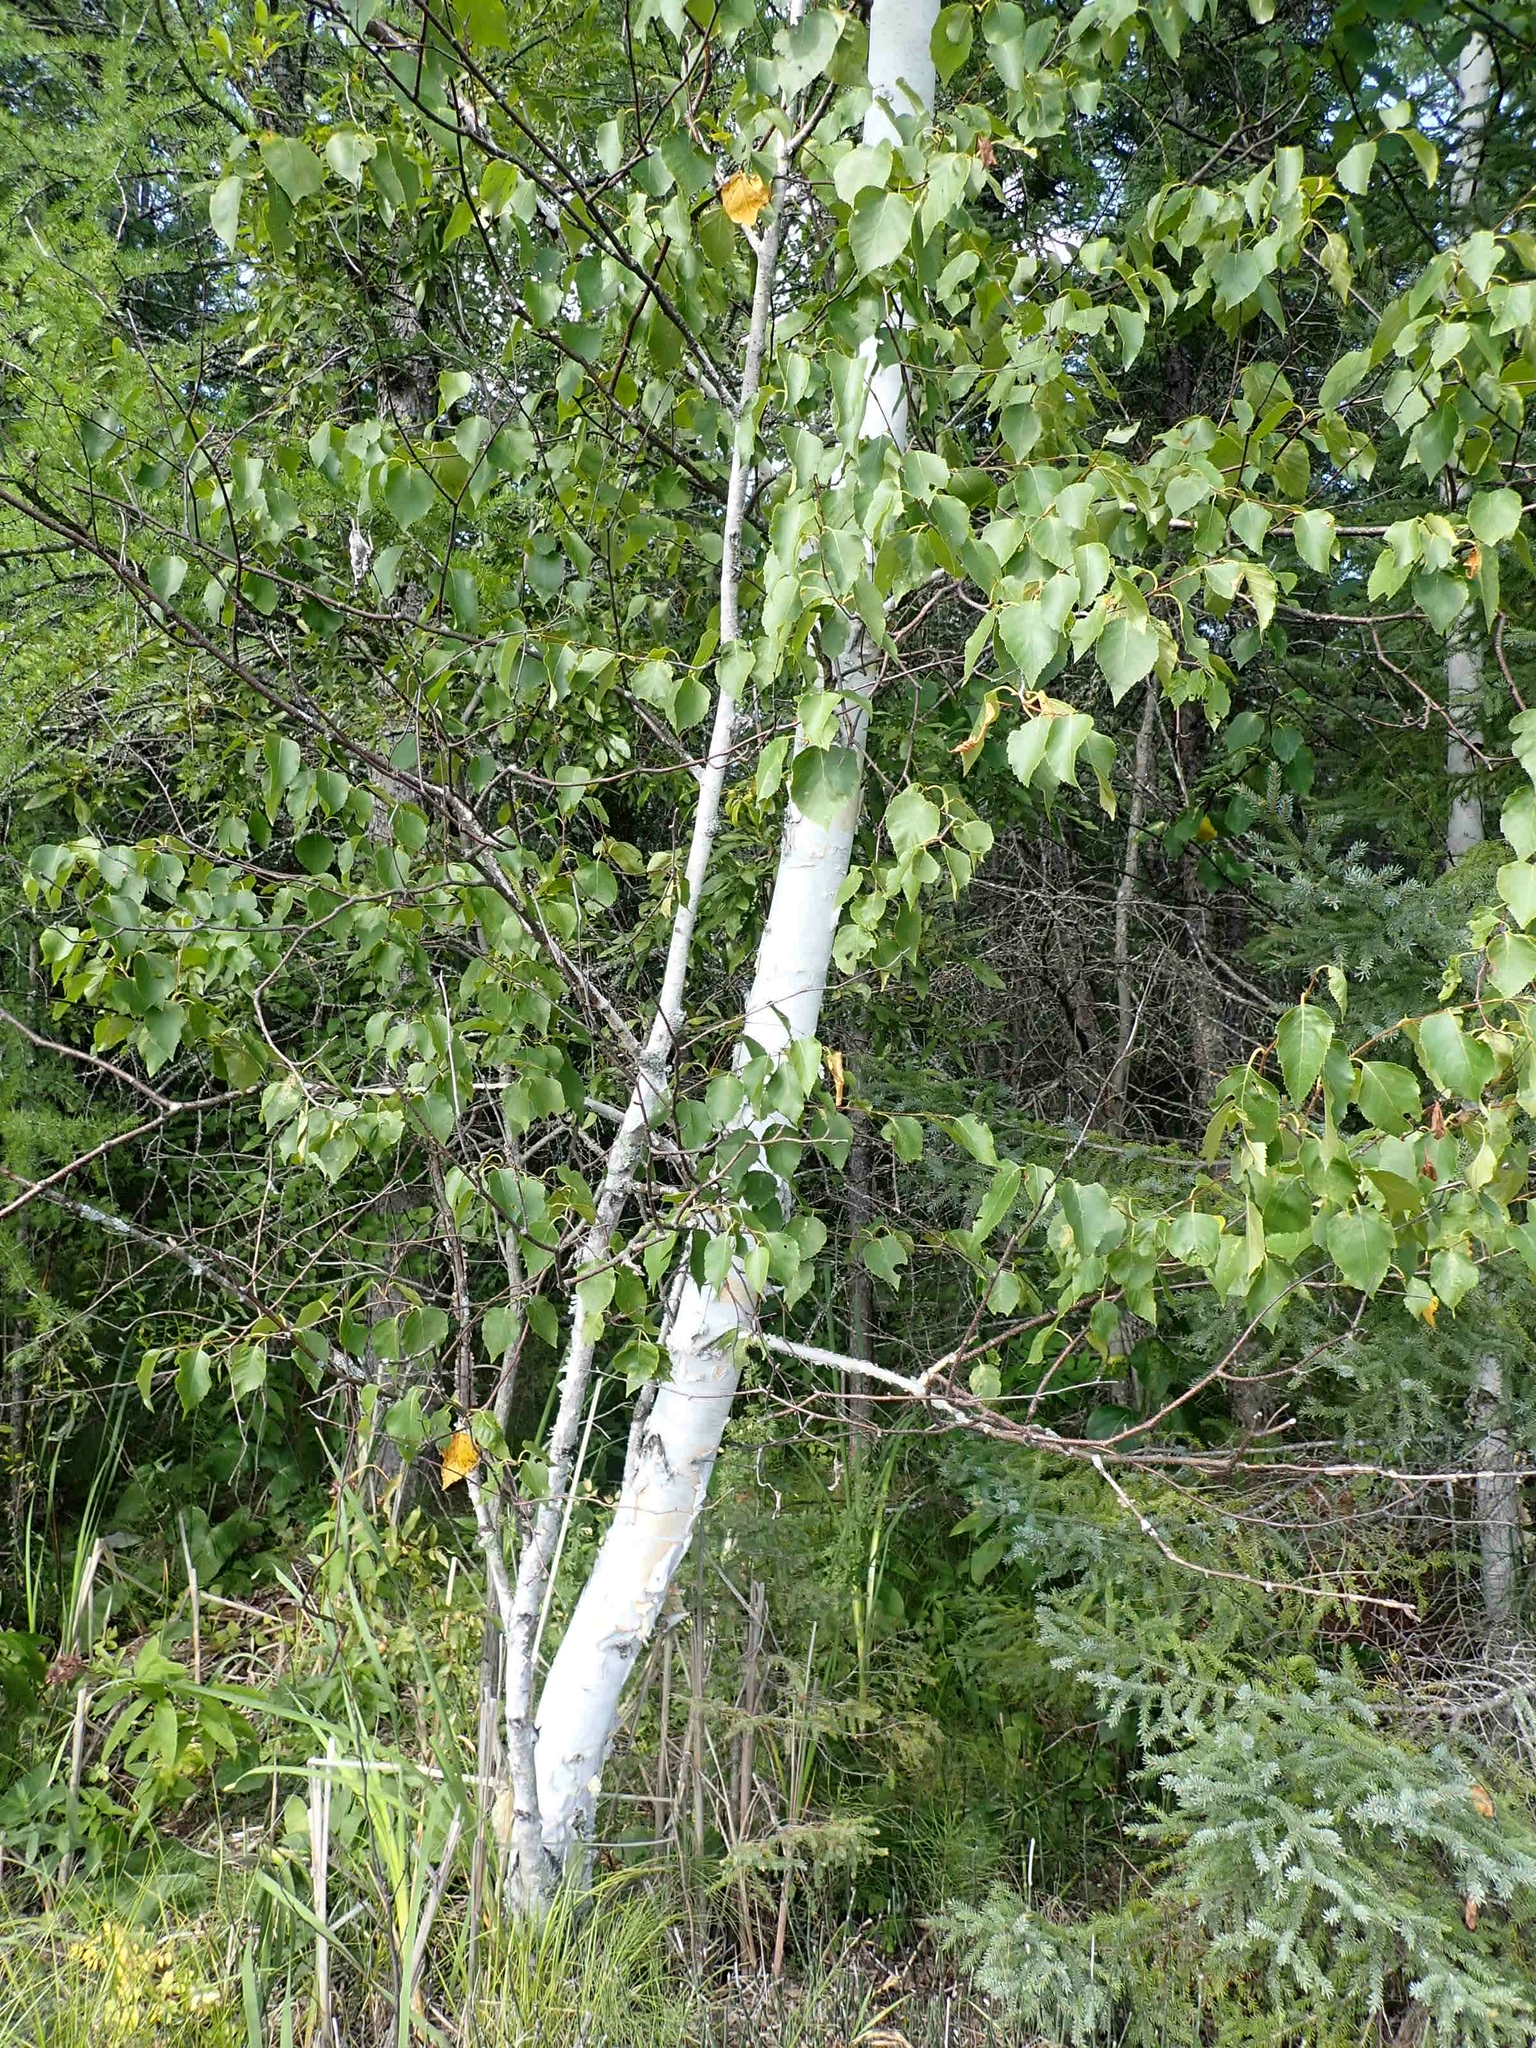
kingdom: Plantae
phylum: Tracheophyta
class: Magnoliopsida
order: Fagales
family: Betulaceae
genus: Betula
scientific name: Betula papyrifera
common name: Paper birch
